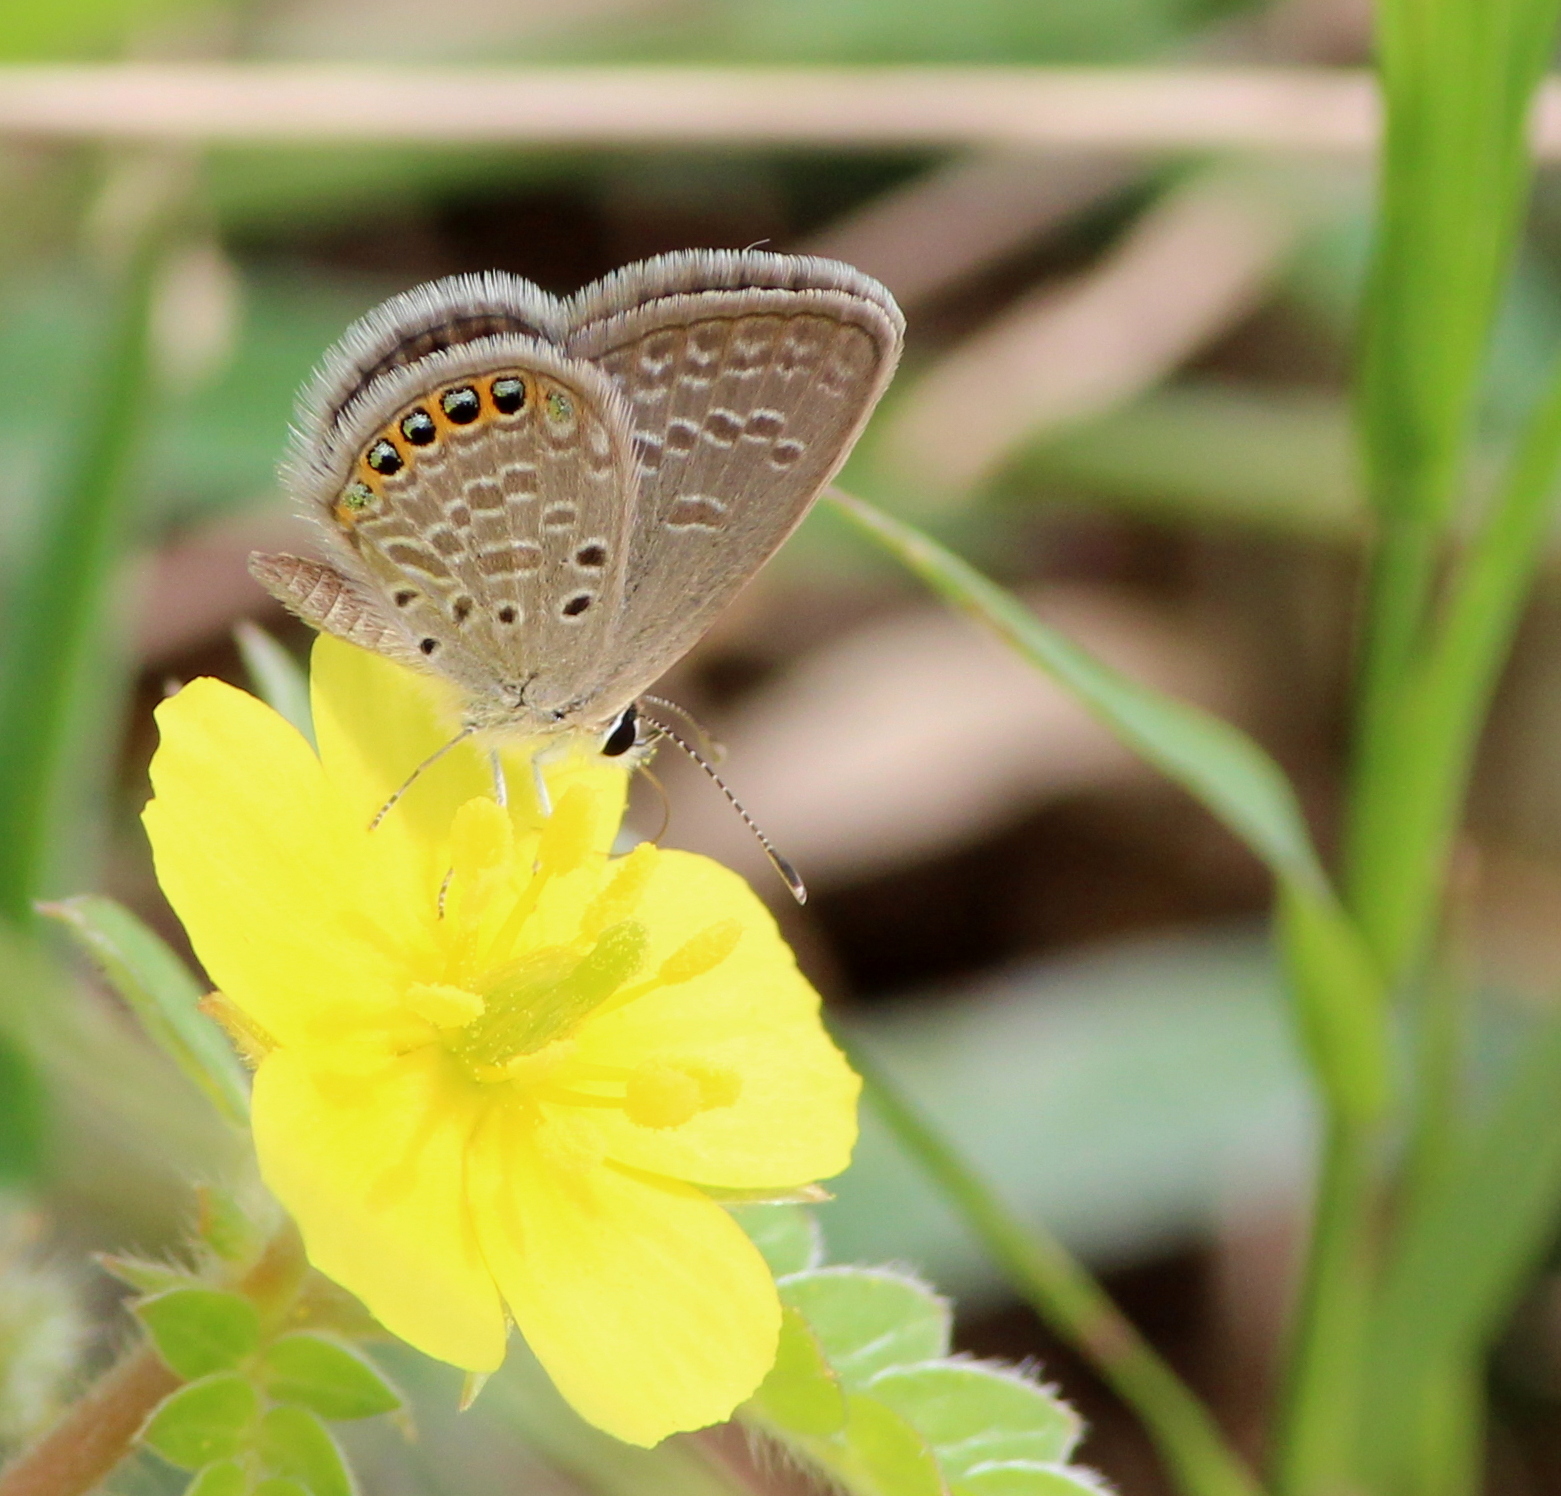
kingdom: Animalia
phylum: Arthropoda
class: Insecta
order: Lepidoptera
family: Lycaenidae
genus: Freyeria
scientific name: Freyeria putli
